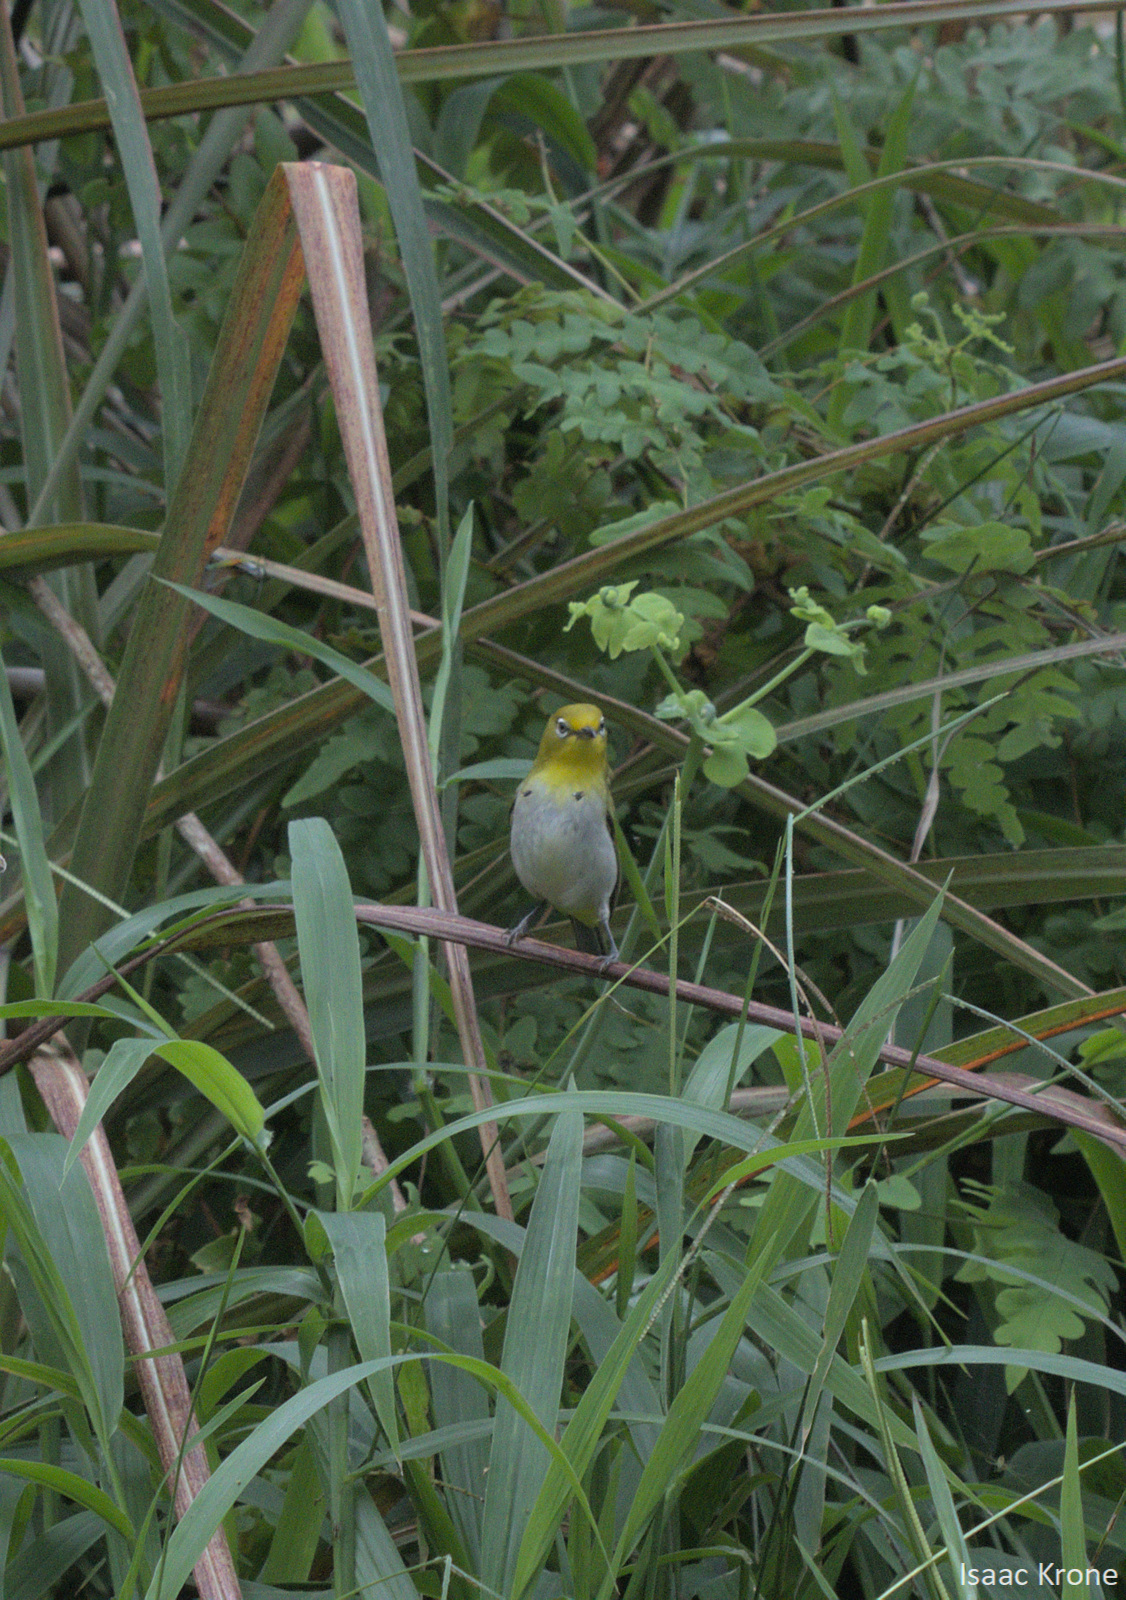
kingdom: Animalia
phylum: Chordata
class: Aves
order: Passeriformes
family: Zosteropidae
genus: Zosterops
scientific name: Zosterops japonicus
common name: Japanese white-eye
